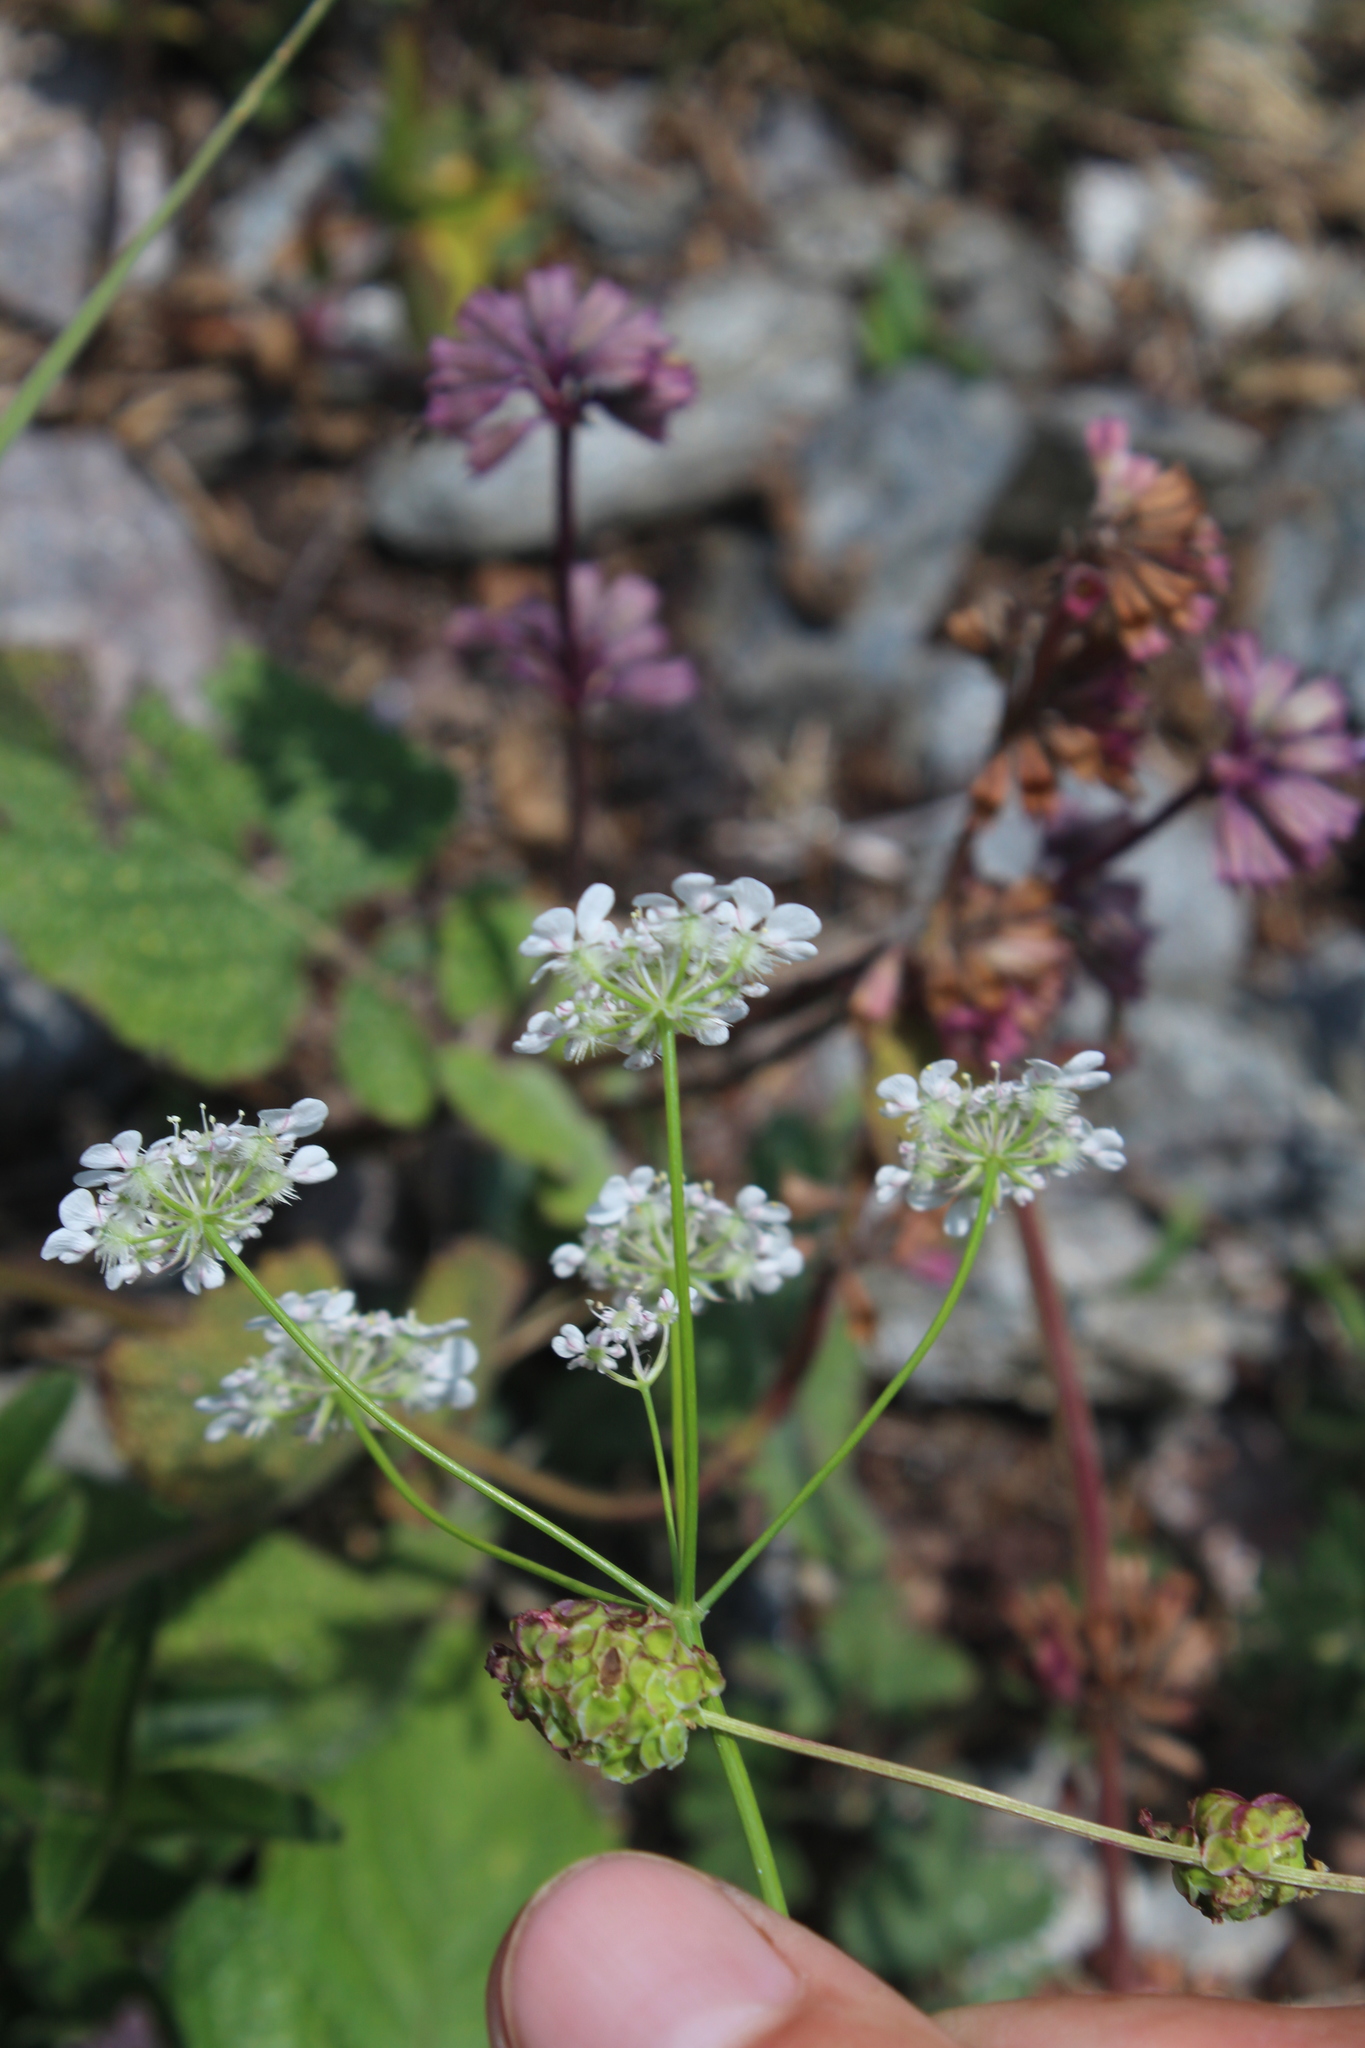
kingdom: Plantae
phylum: Tracheophyta
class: Magnoliopsida
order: Apiales
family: Apiaceae
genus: Astrodaucus
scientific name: Astrodaucus orientalis
